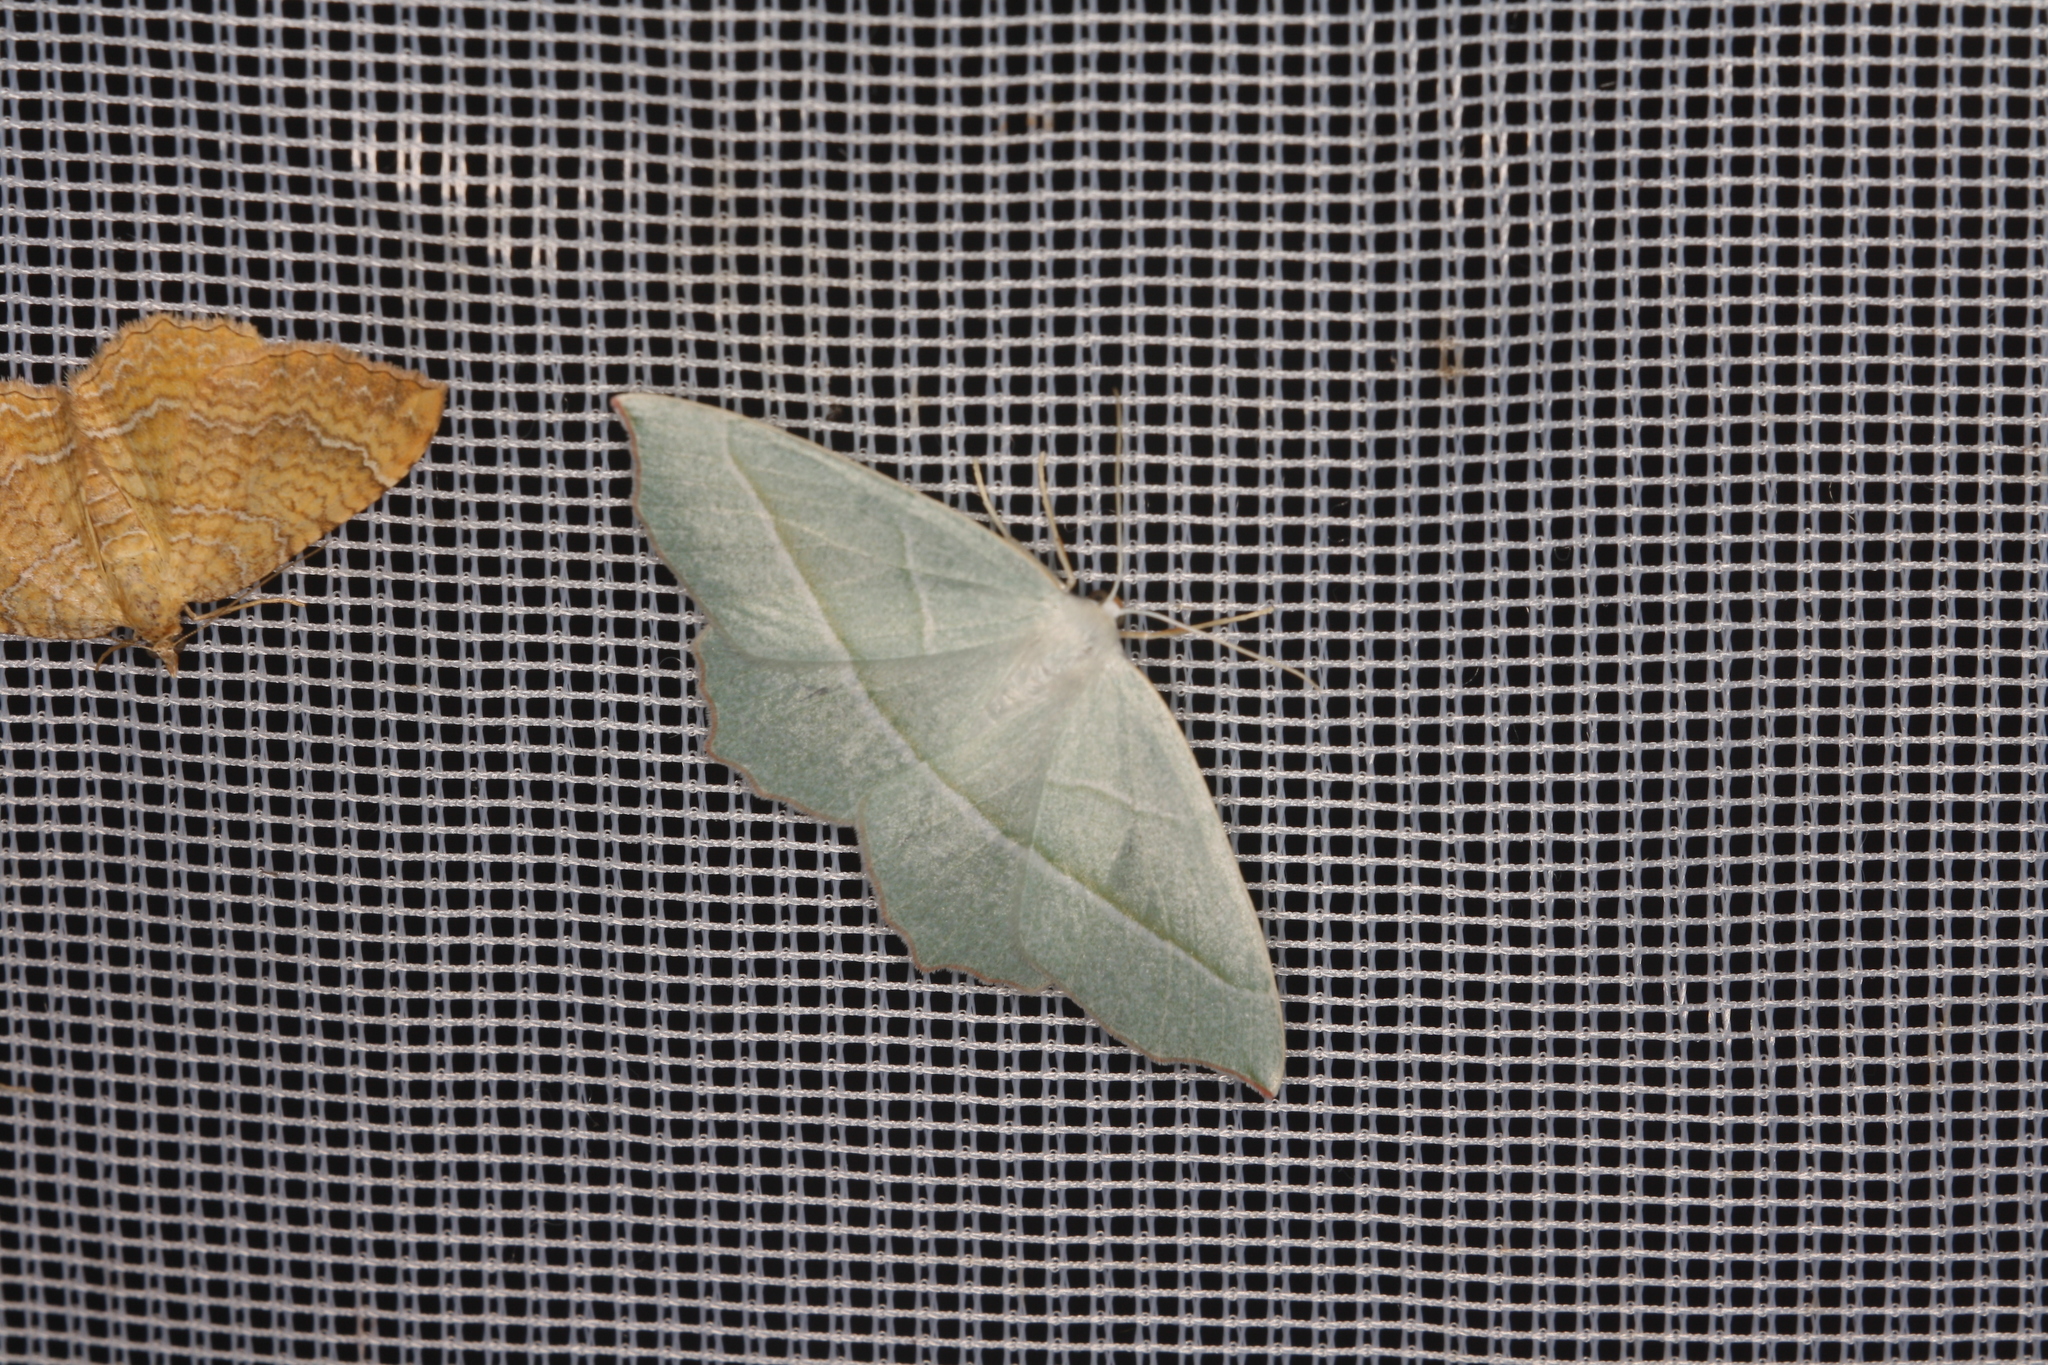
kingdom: Animalia
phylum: Arthropoda
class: Insecta
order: Lepidoptera
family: Geometridae
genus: Campaea
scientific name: Campaea margaritaria
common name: Light emerald
